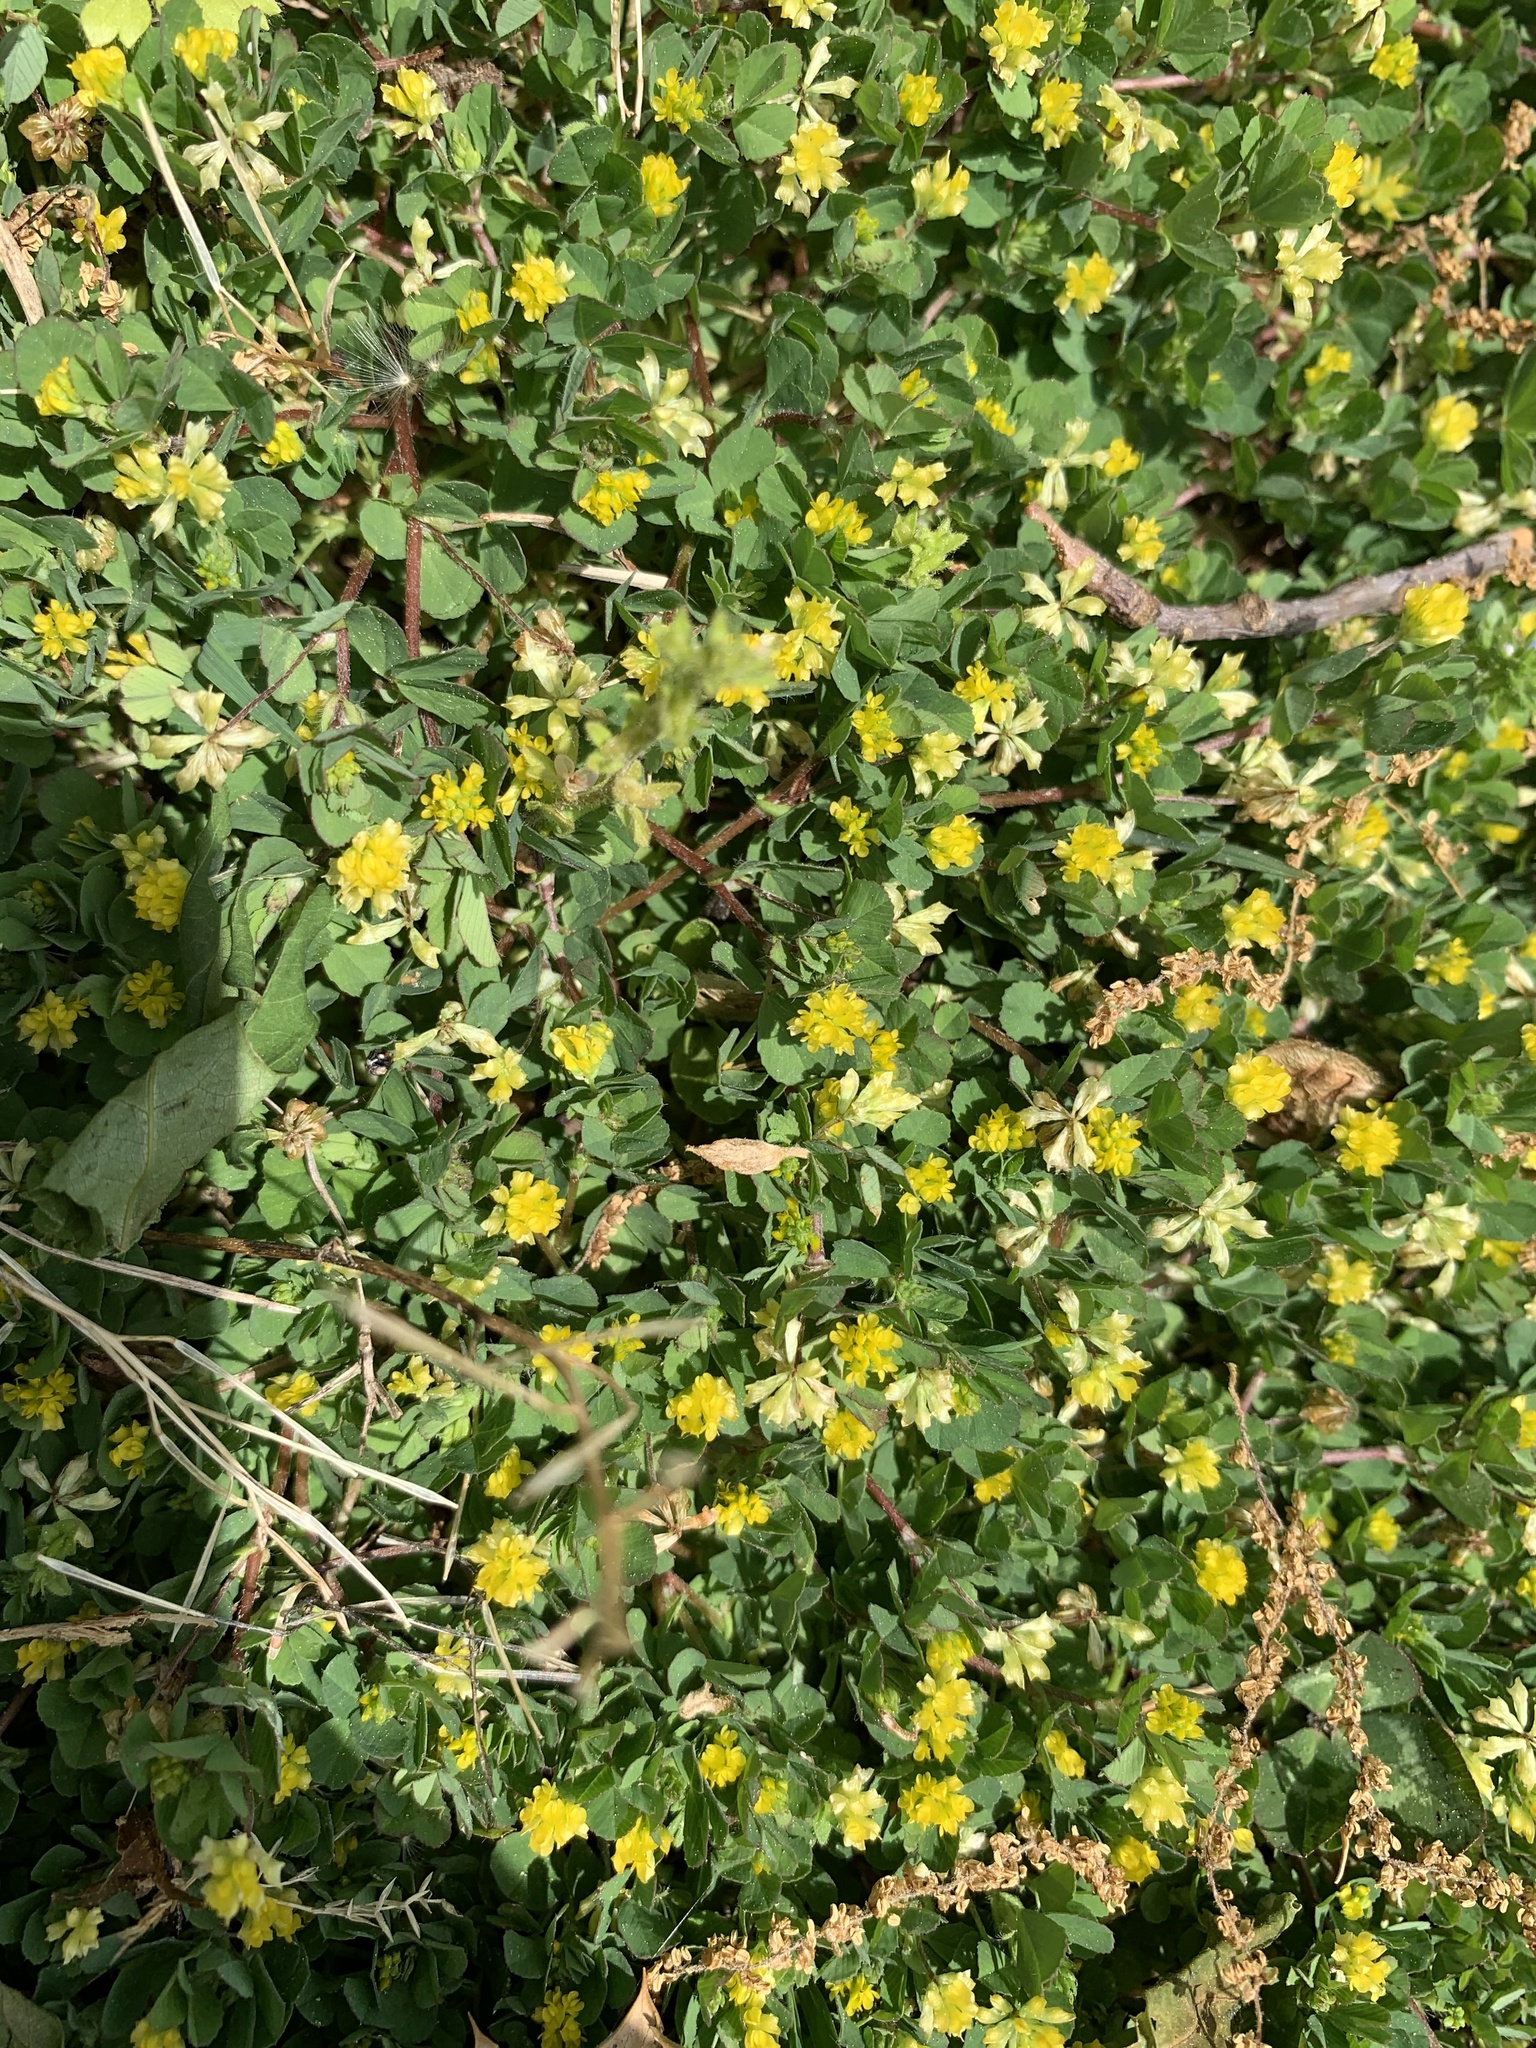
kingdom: Plantae
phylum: Tracheophyta
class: Magnoliopsida
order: Fabales
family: Fabaceae
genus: Trifolium
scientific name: Trifolium dubium
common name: Suckling clover
